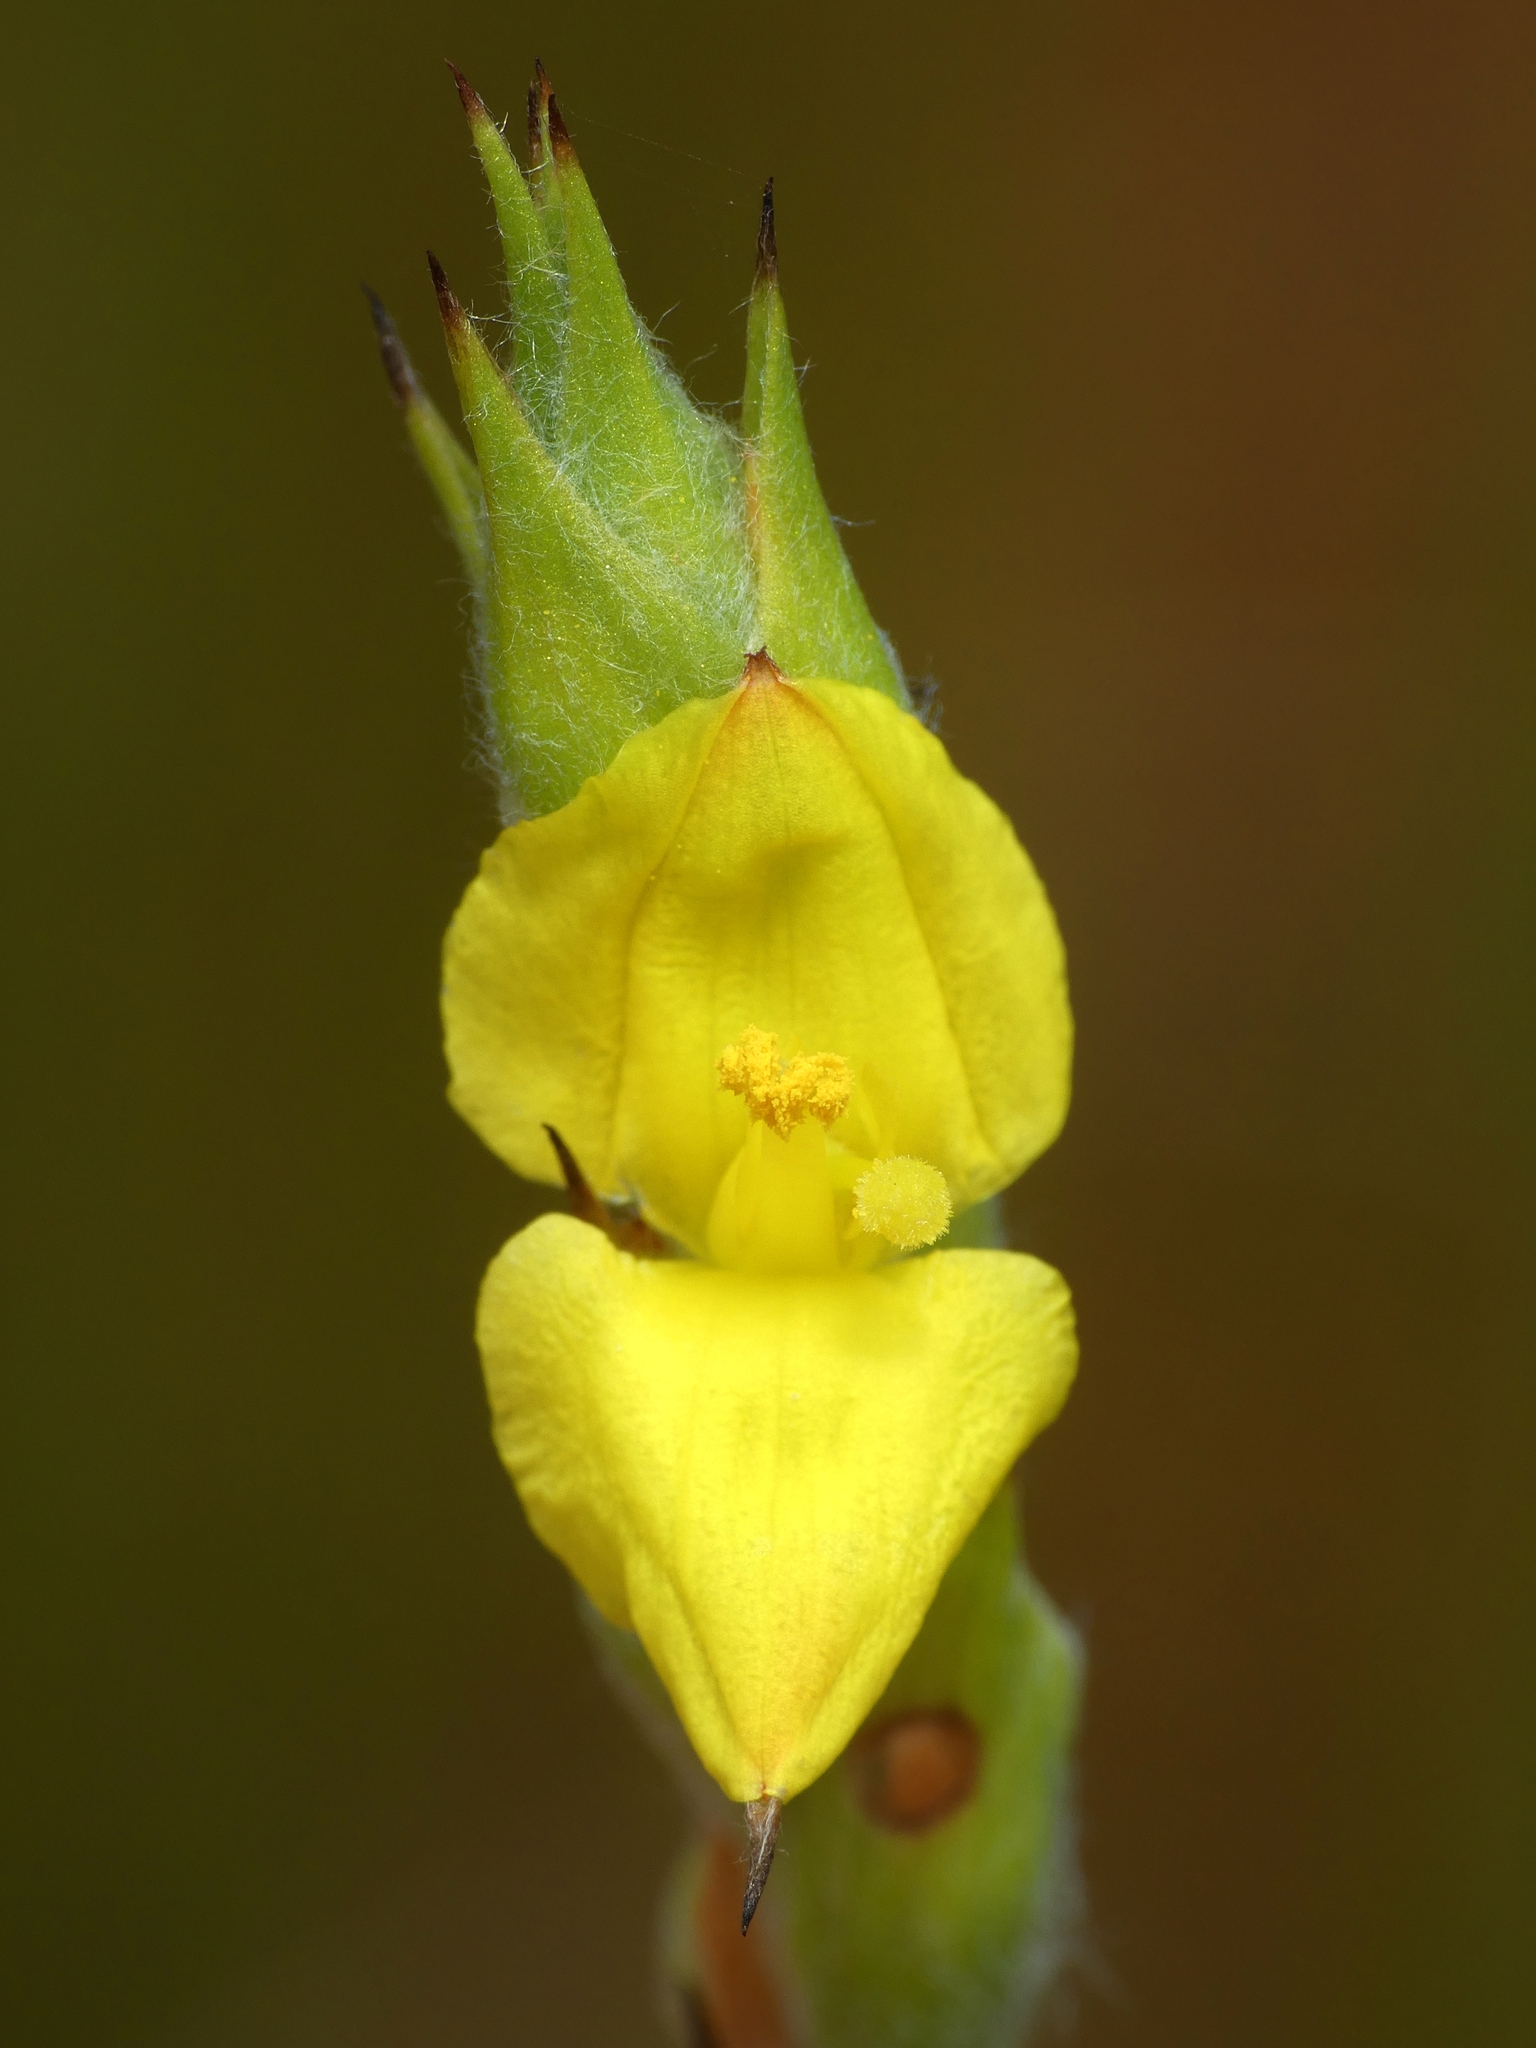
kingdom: Plantae
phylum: Tracheophyta
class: Liliopsida
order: Commelinales
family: Philydraceae
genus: Philydrum
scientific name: Philydrum lanuginosum
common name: Woolly frog's mouth
